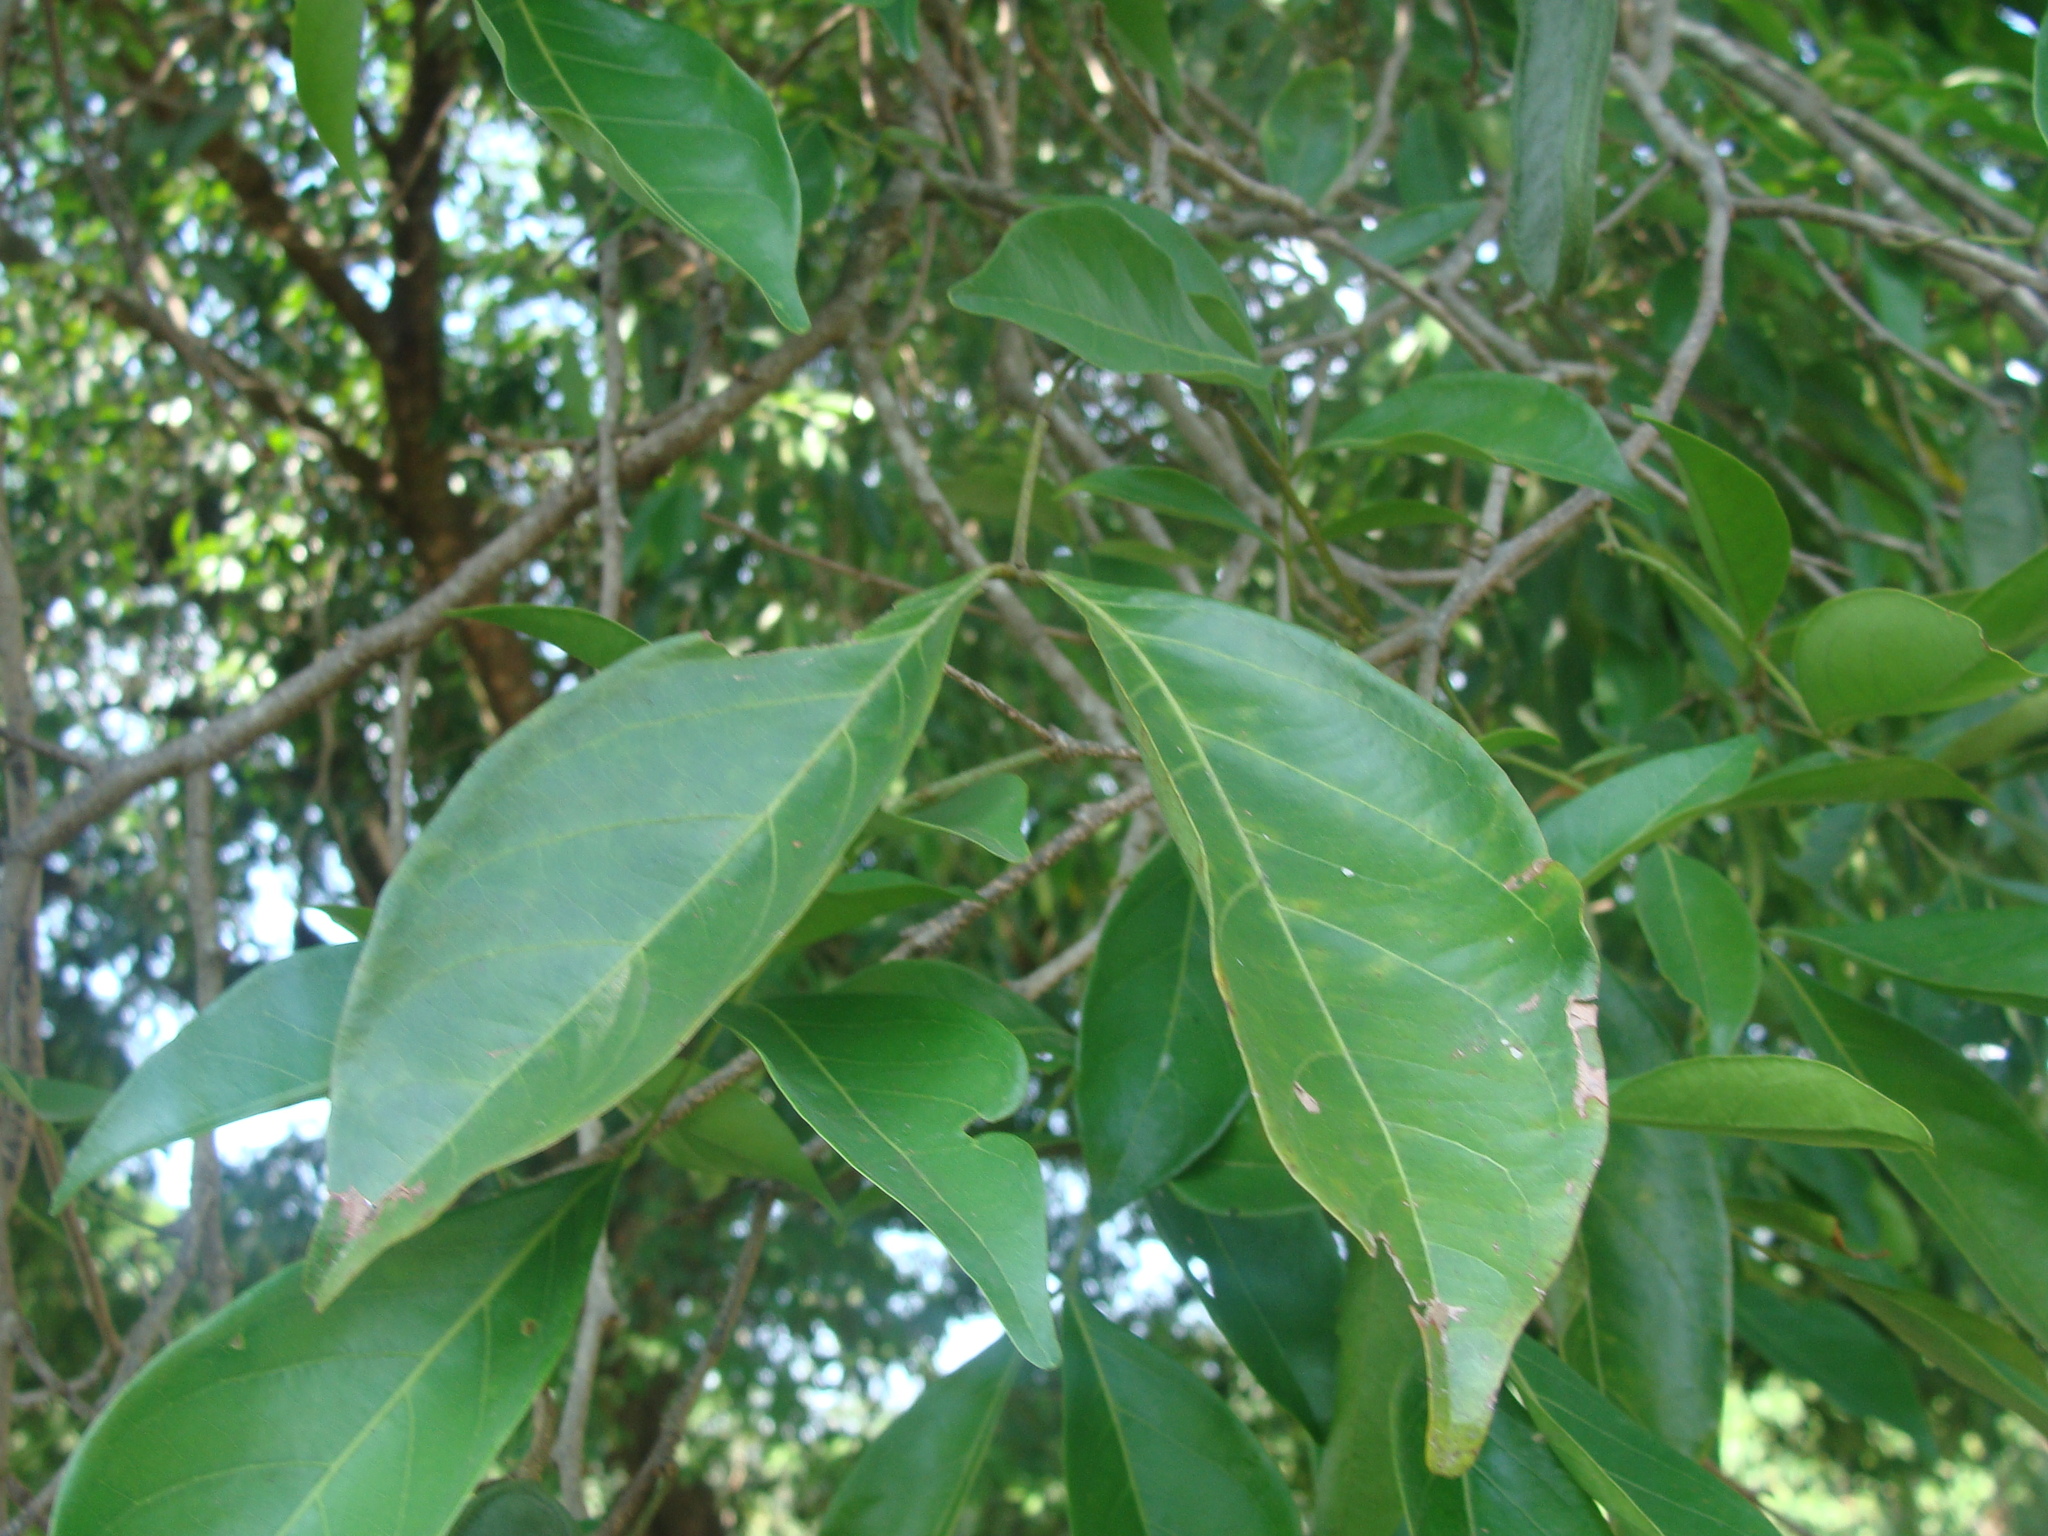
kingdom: Plantae
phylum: Tracheophyta
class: Magnoliopsida
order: Fabales
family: Fabaceae
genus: Inga
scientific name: Inga punctata
